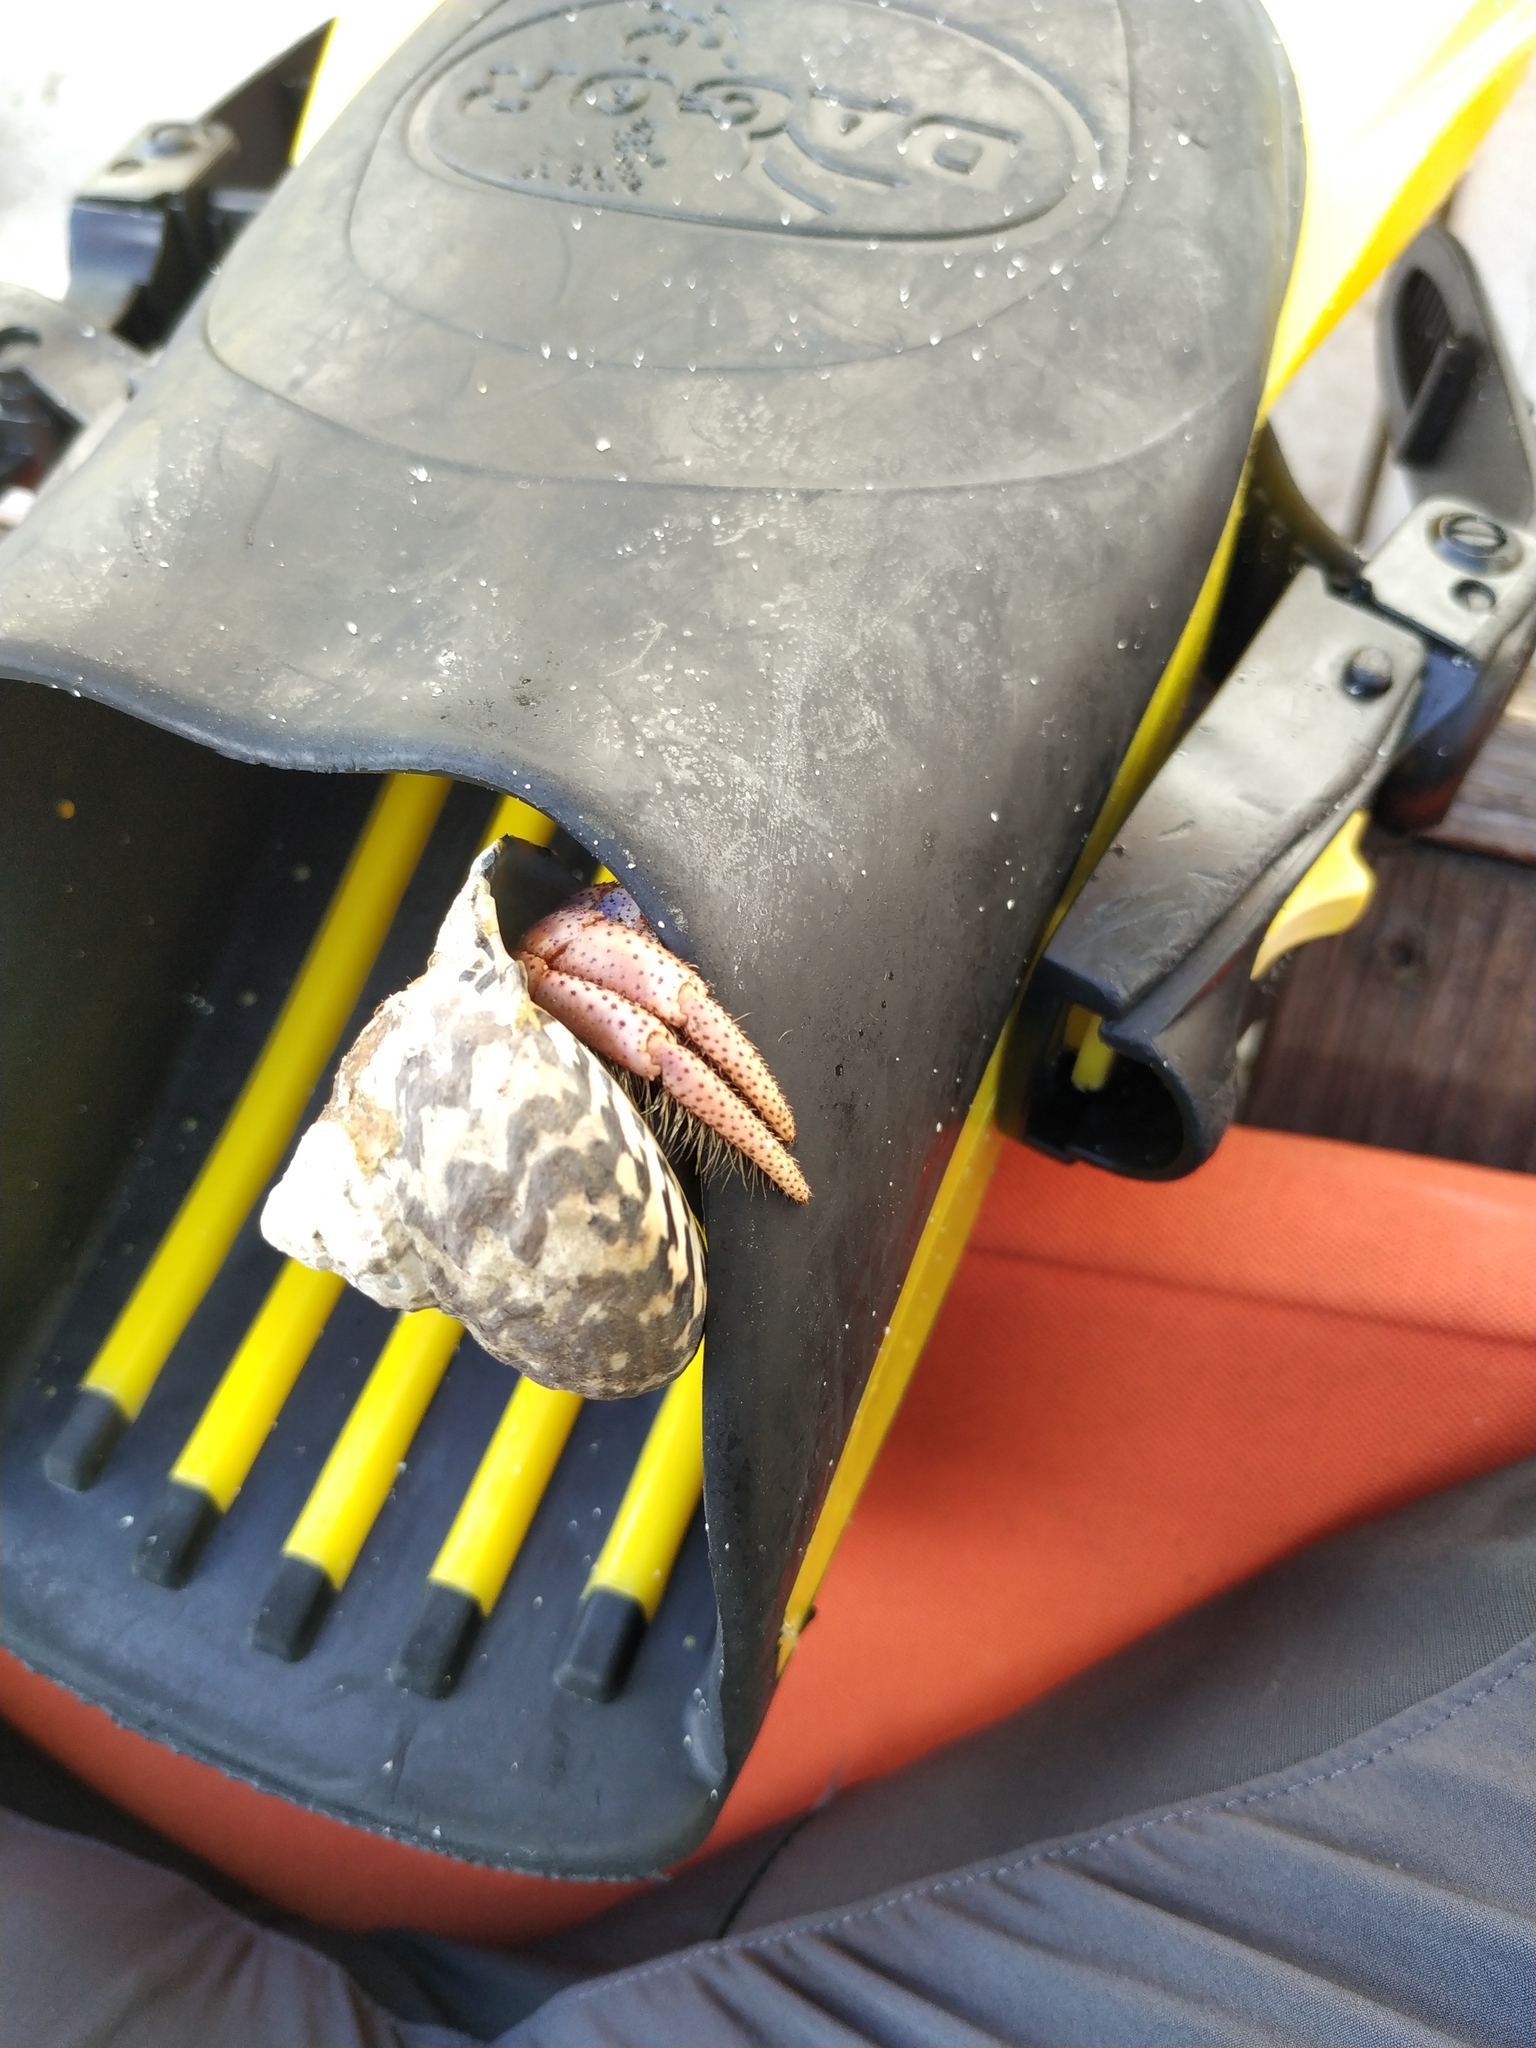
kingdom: Animalia
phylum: Arthropoda
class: Malacostraca
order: Decapoda
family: Coenobitidae
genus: Coenobita
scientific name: Coenobita clypeatus
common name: Caribbean hermit crab
